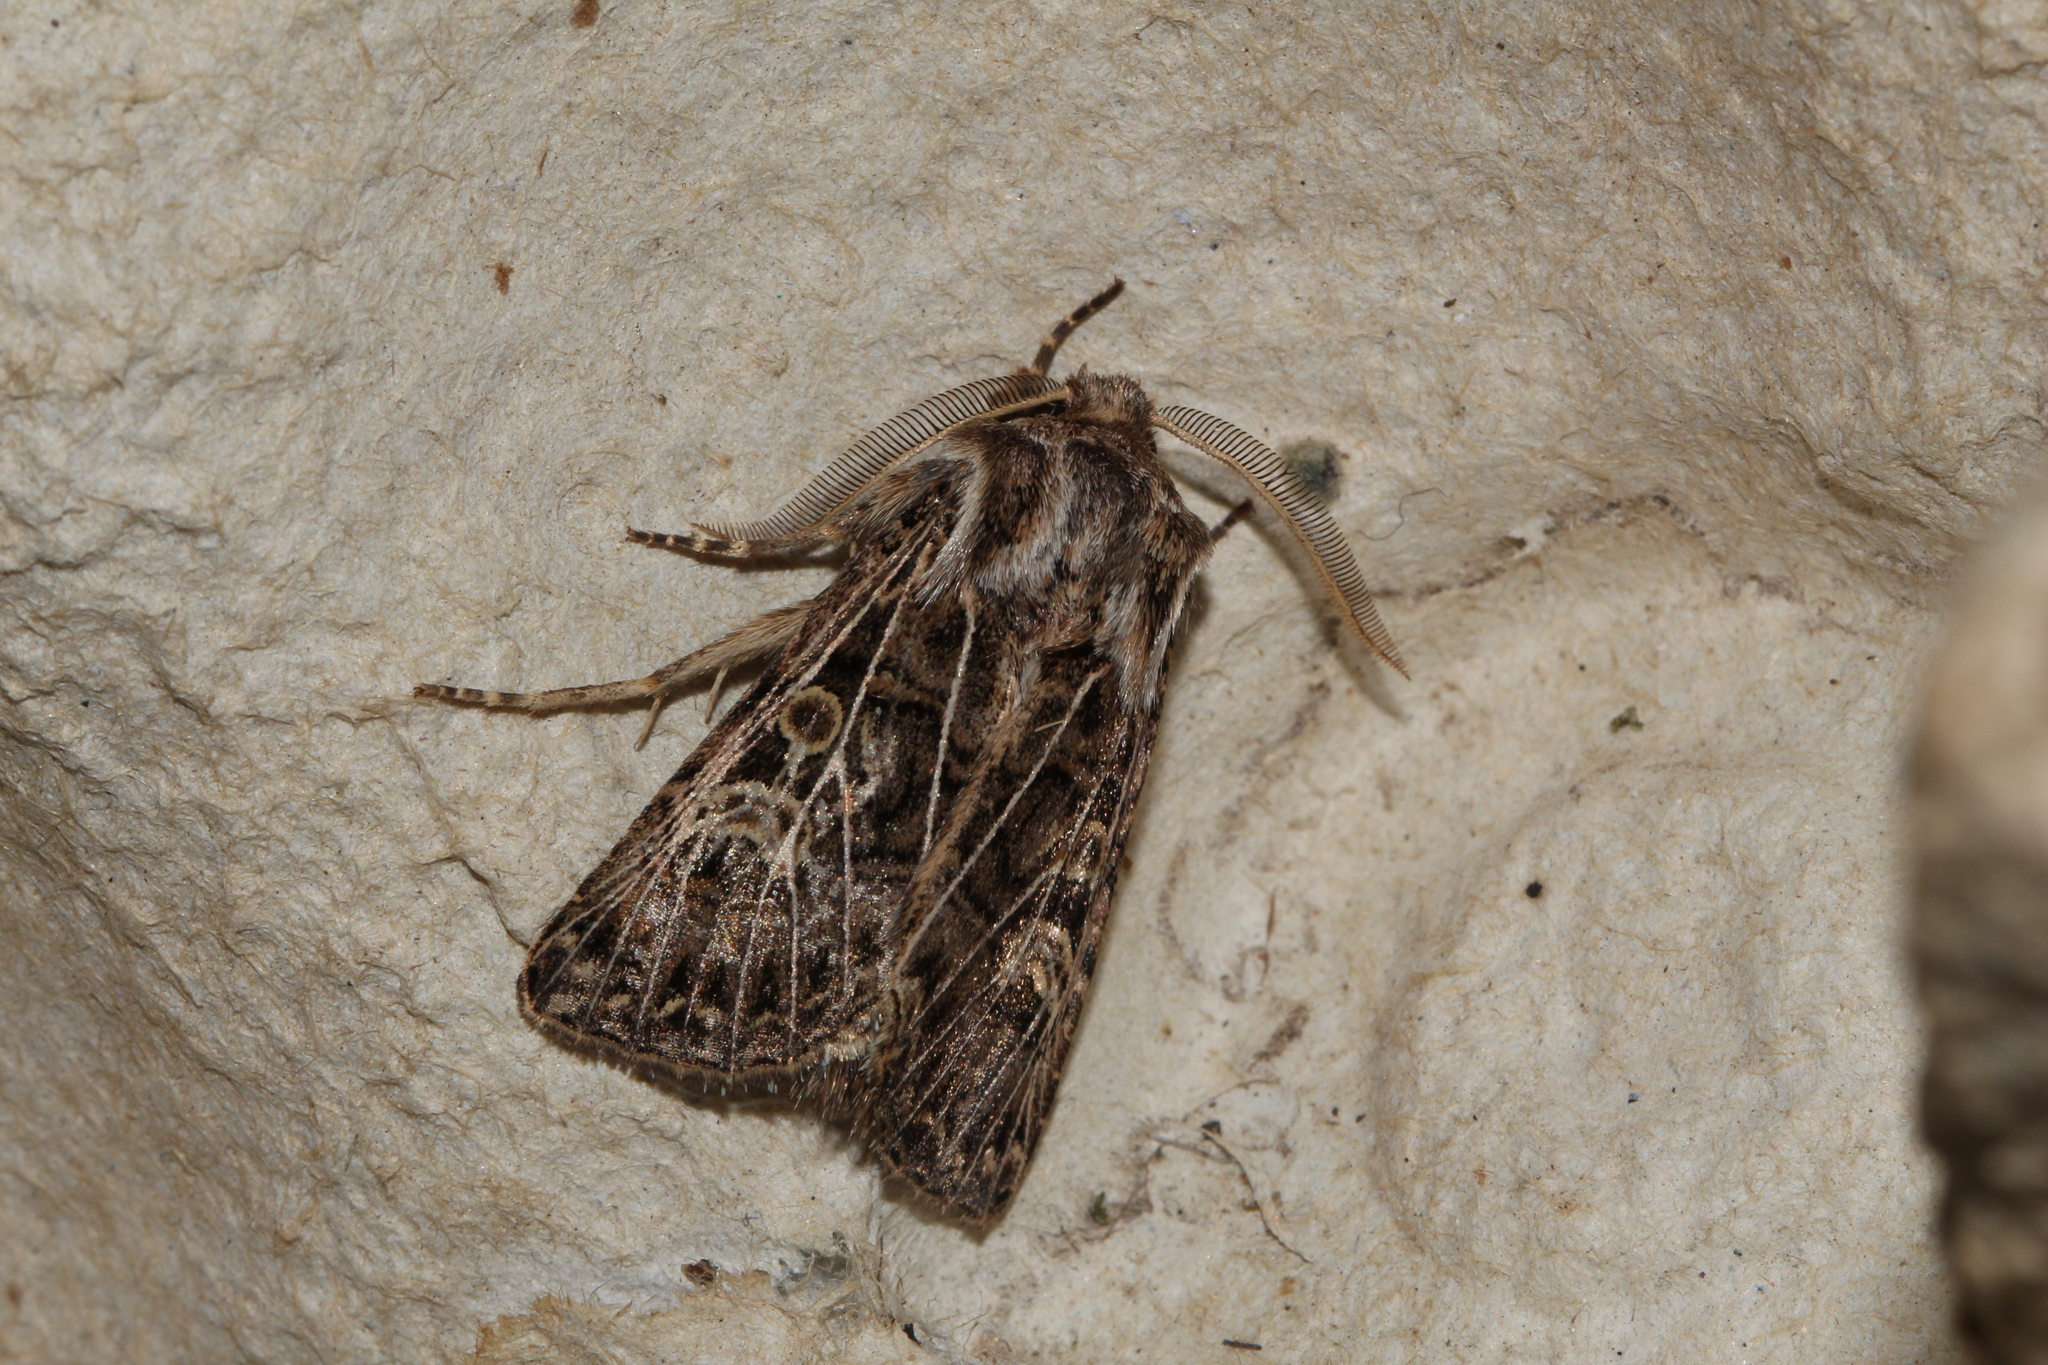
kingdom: Animalia
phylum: Arthropoda
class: Insecta
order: Lepidoptera
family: Noctuidae
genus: Tholera
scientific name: Tholera decimalis
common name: Feathered gothic
